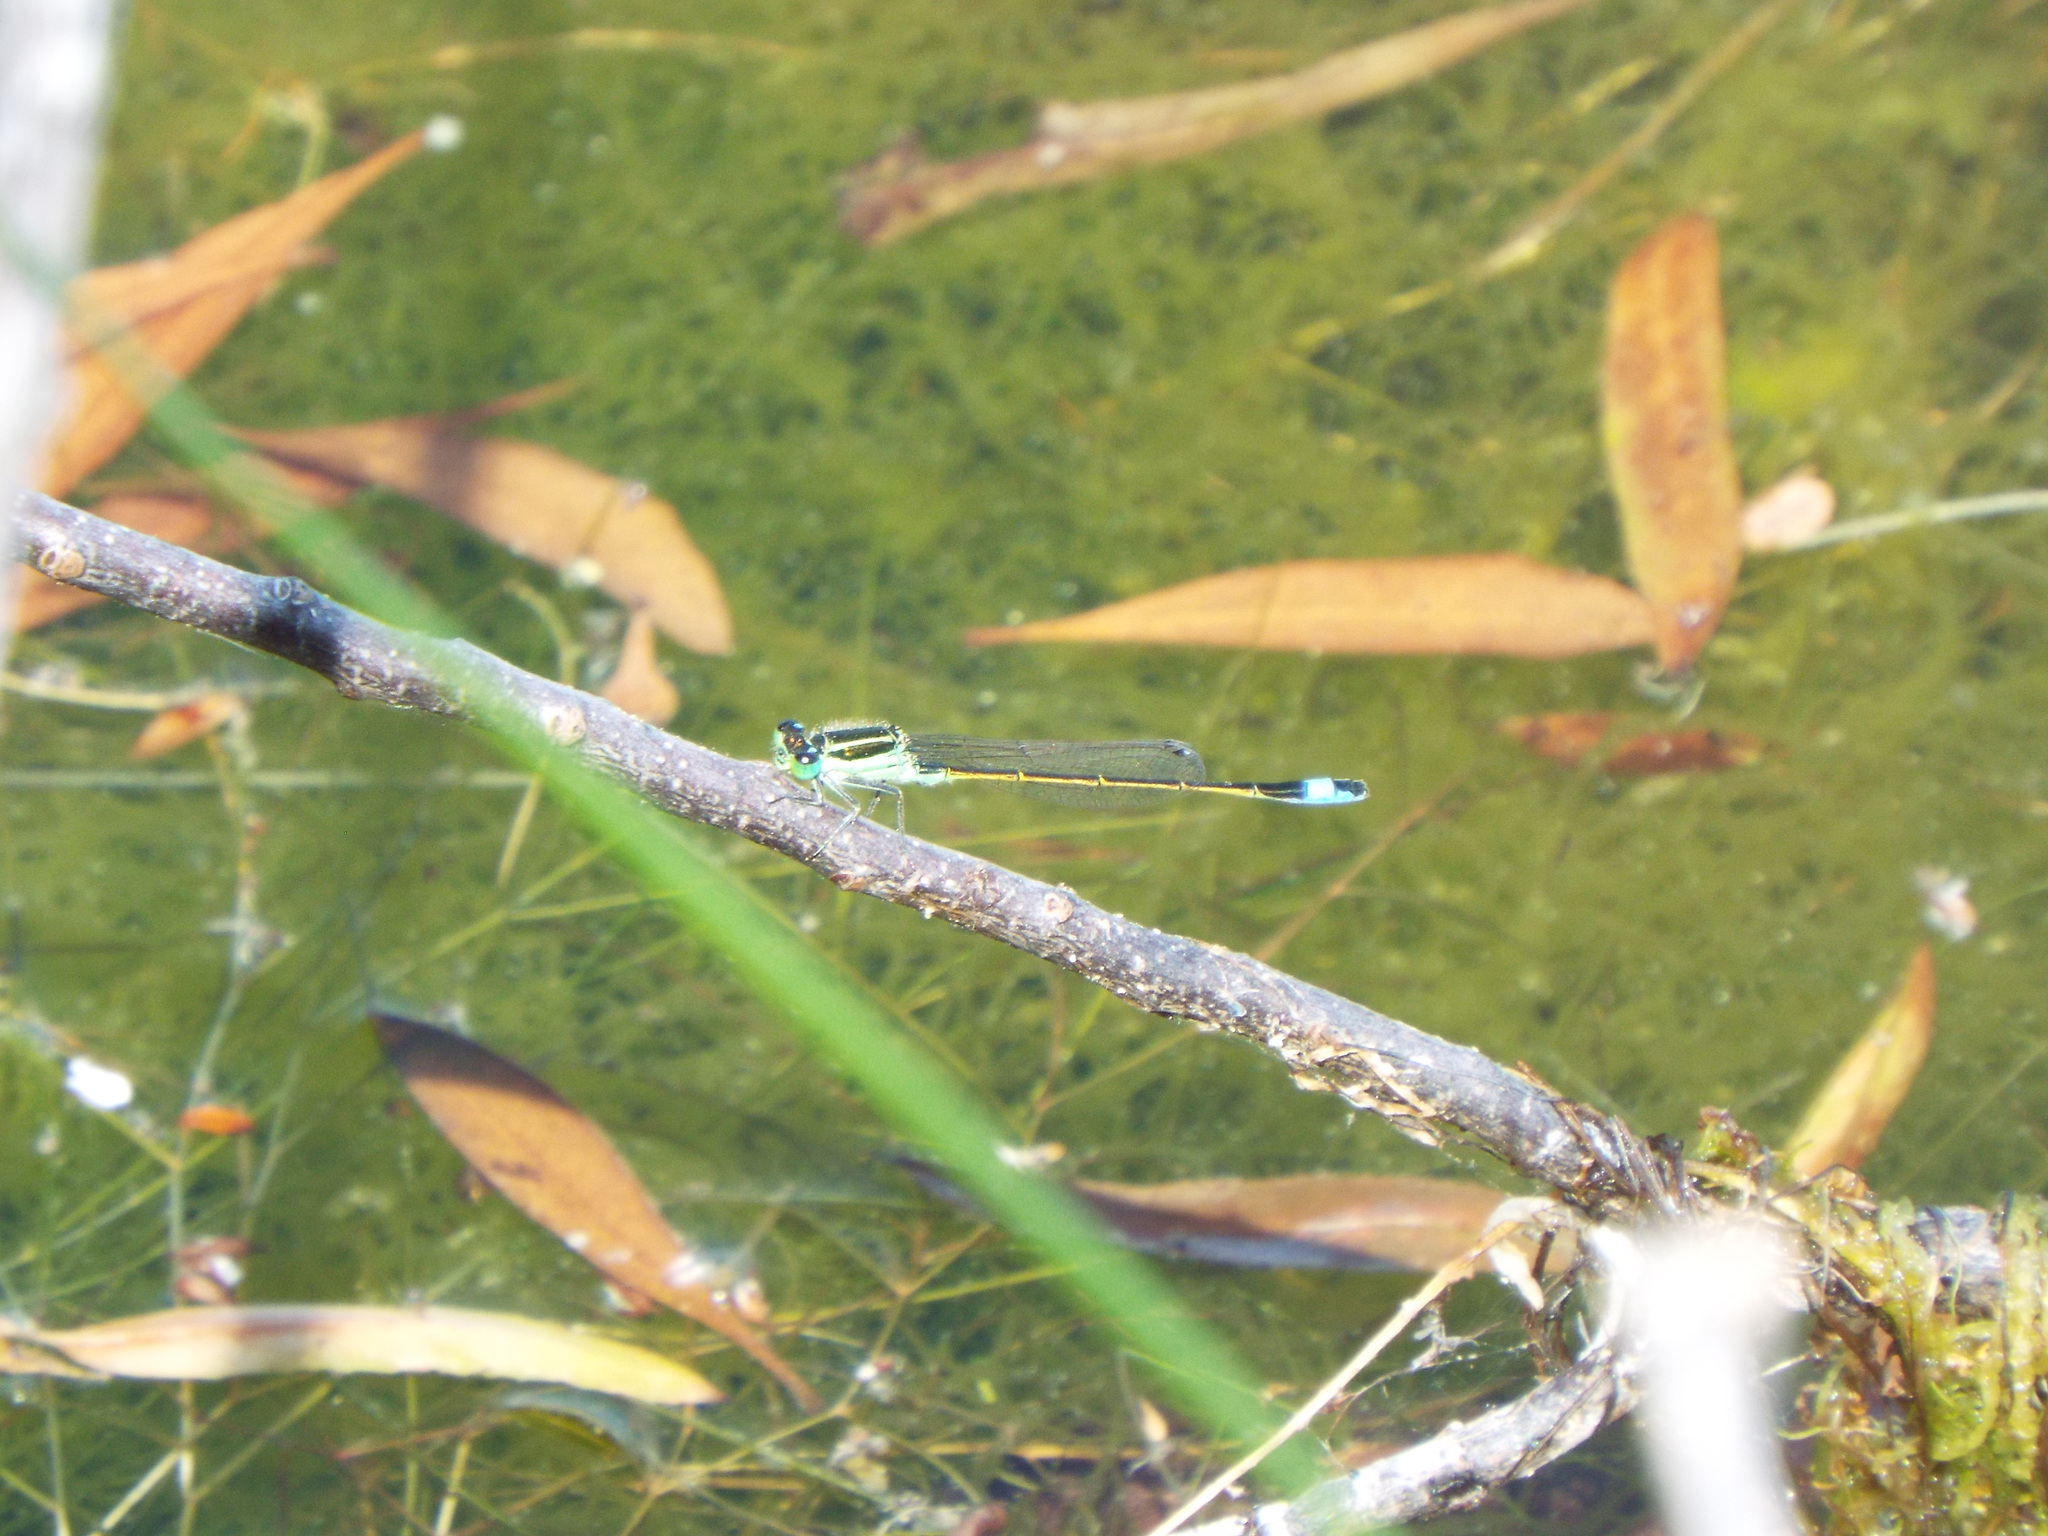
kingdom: Animalia
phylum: Arthropoda
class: Insecta
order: Odonata
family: Coenagrionidae
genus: Ischnura
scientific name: Ischnura ramburii
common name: Rambur's forktail
